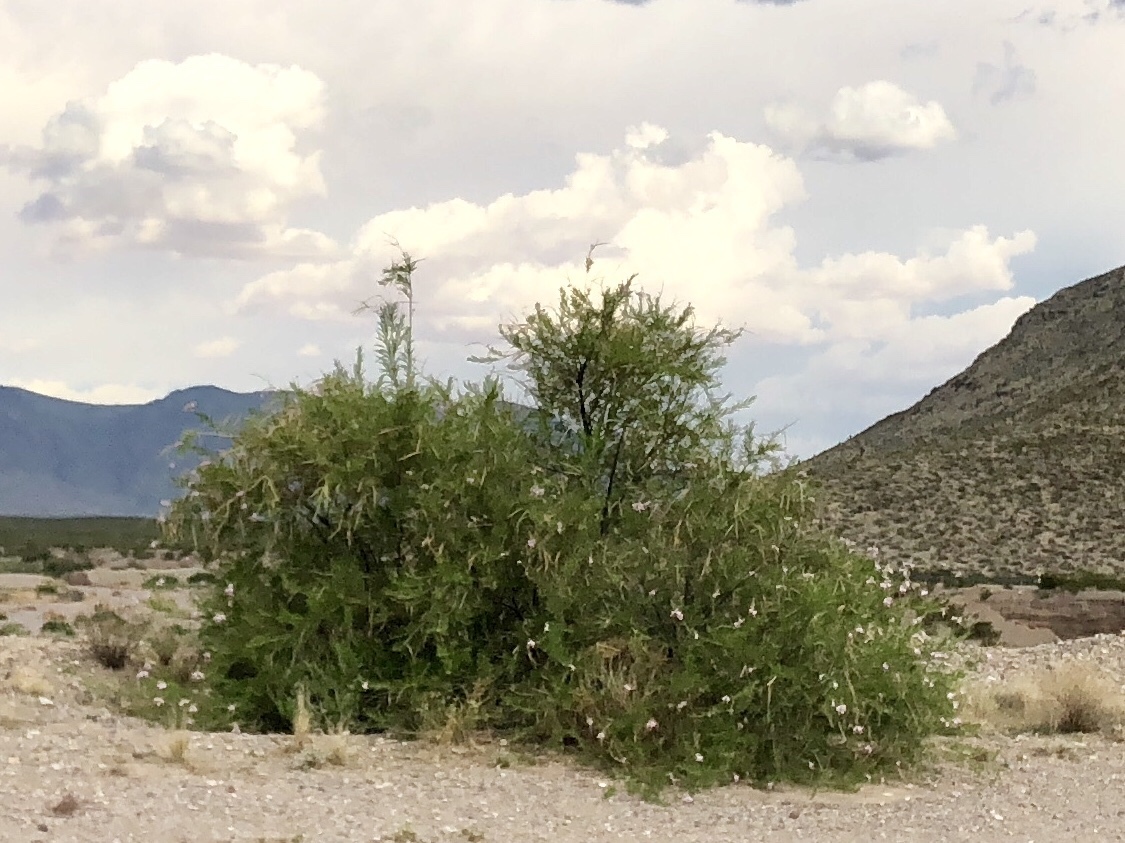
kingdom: Plantae
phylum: Tracheophyta
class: Magnoliopsida
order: Lamiales
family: Bignoniaceae
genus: Chilopsis
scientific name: Chilopsis linearis
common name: Desert-willow
